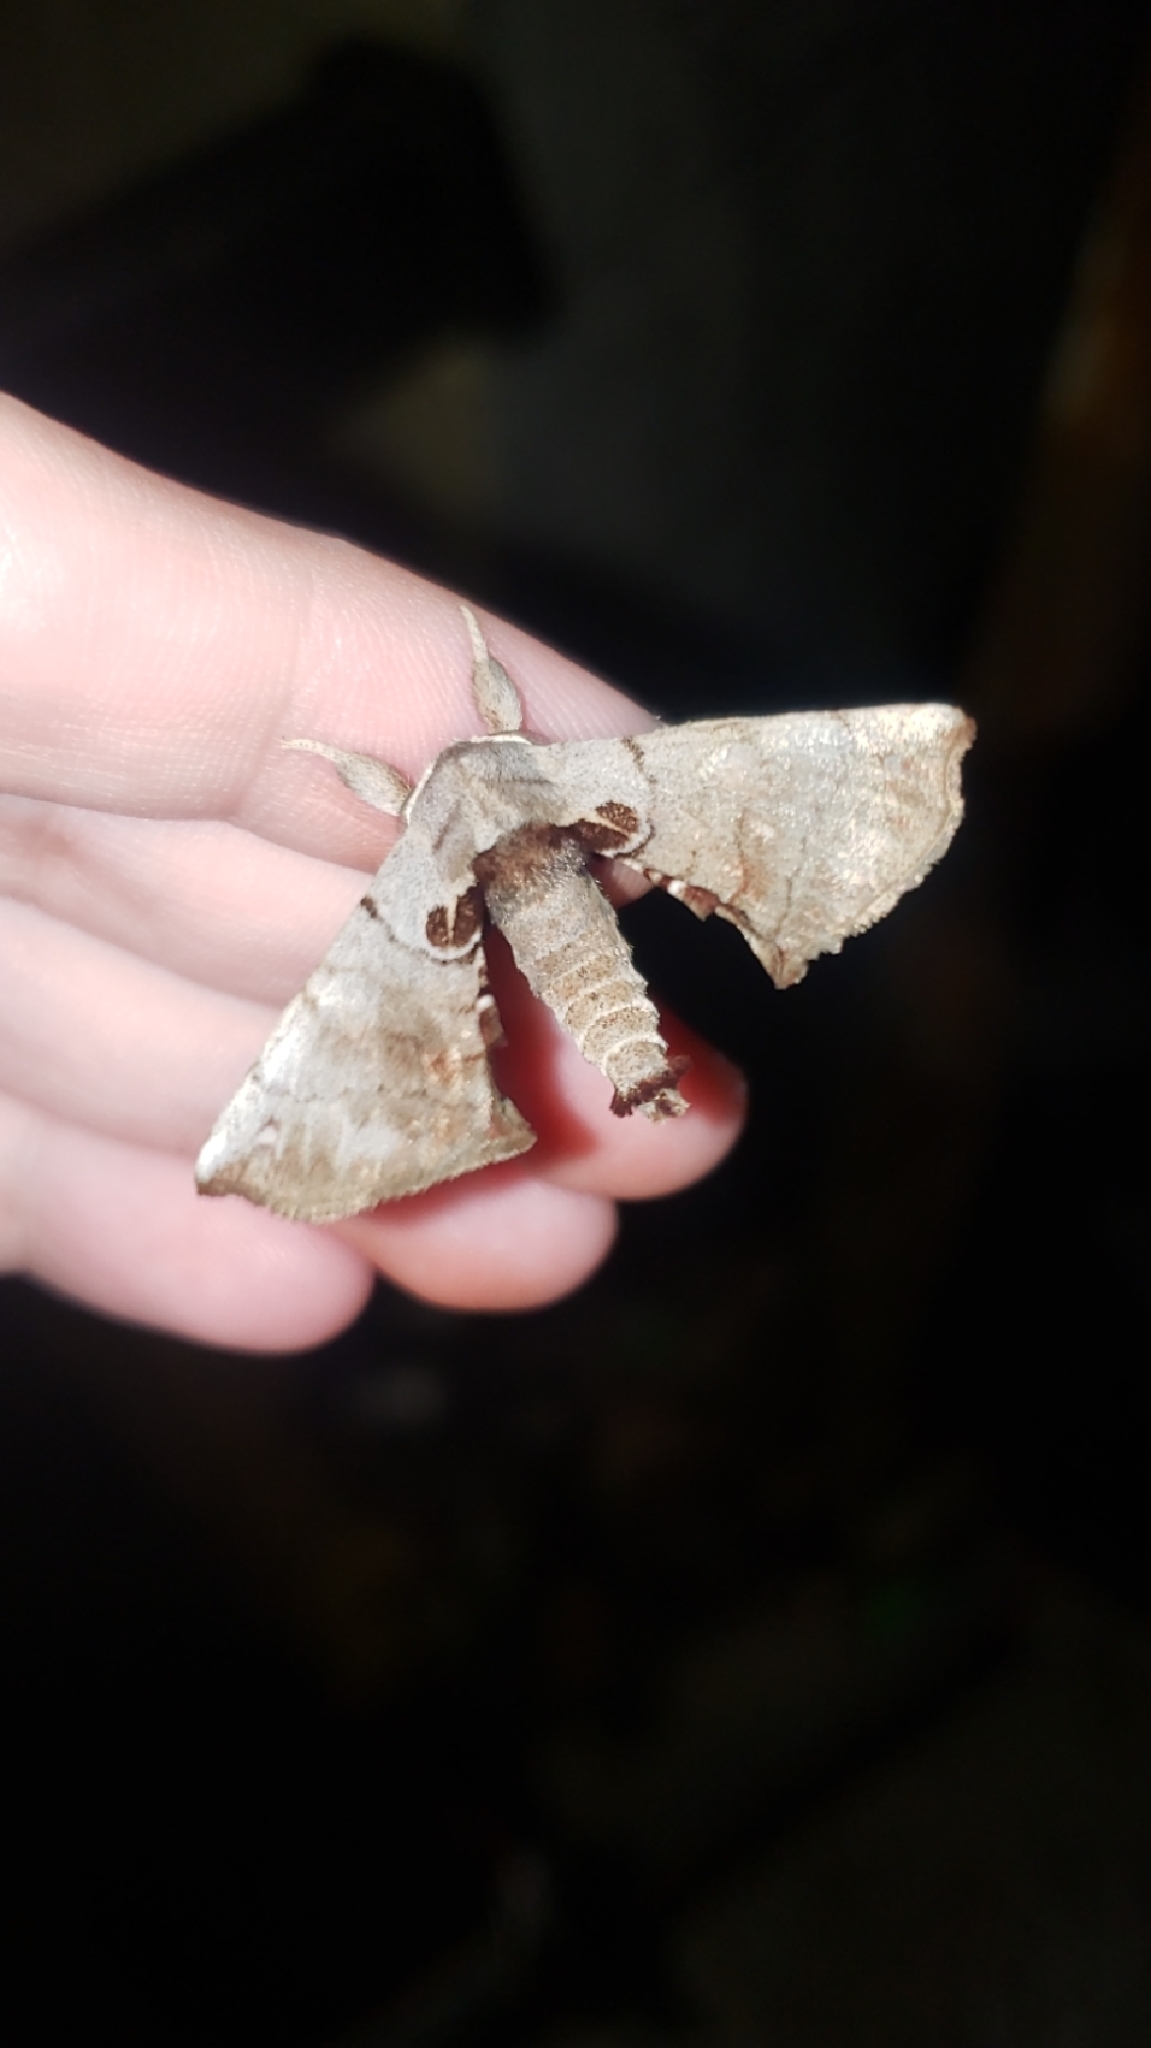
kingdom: Animalia
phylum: Arthropoda
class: Insecta
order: Lepidoptera
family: Apatelodidae
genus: Hygrochroa
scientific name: Hygrochroa Apatelodes torrefacta
